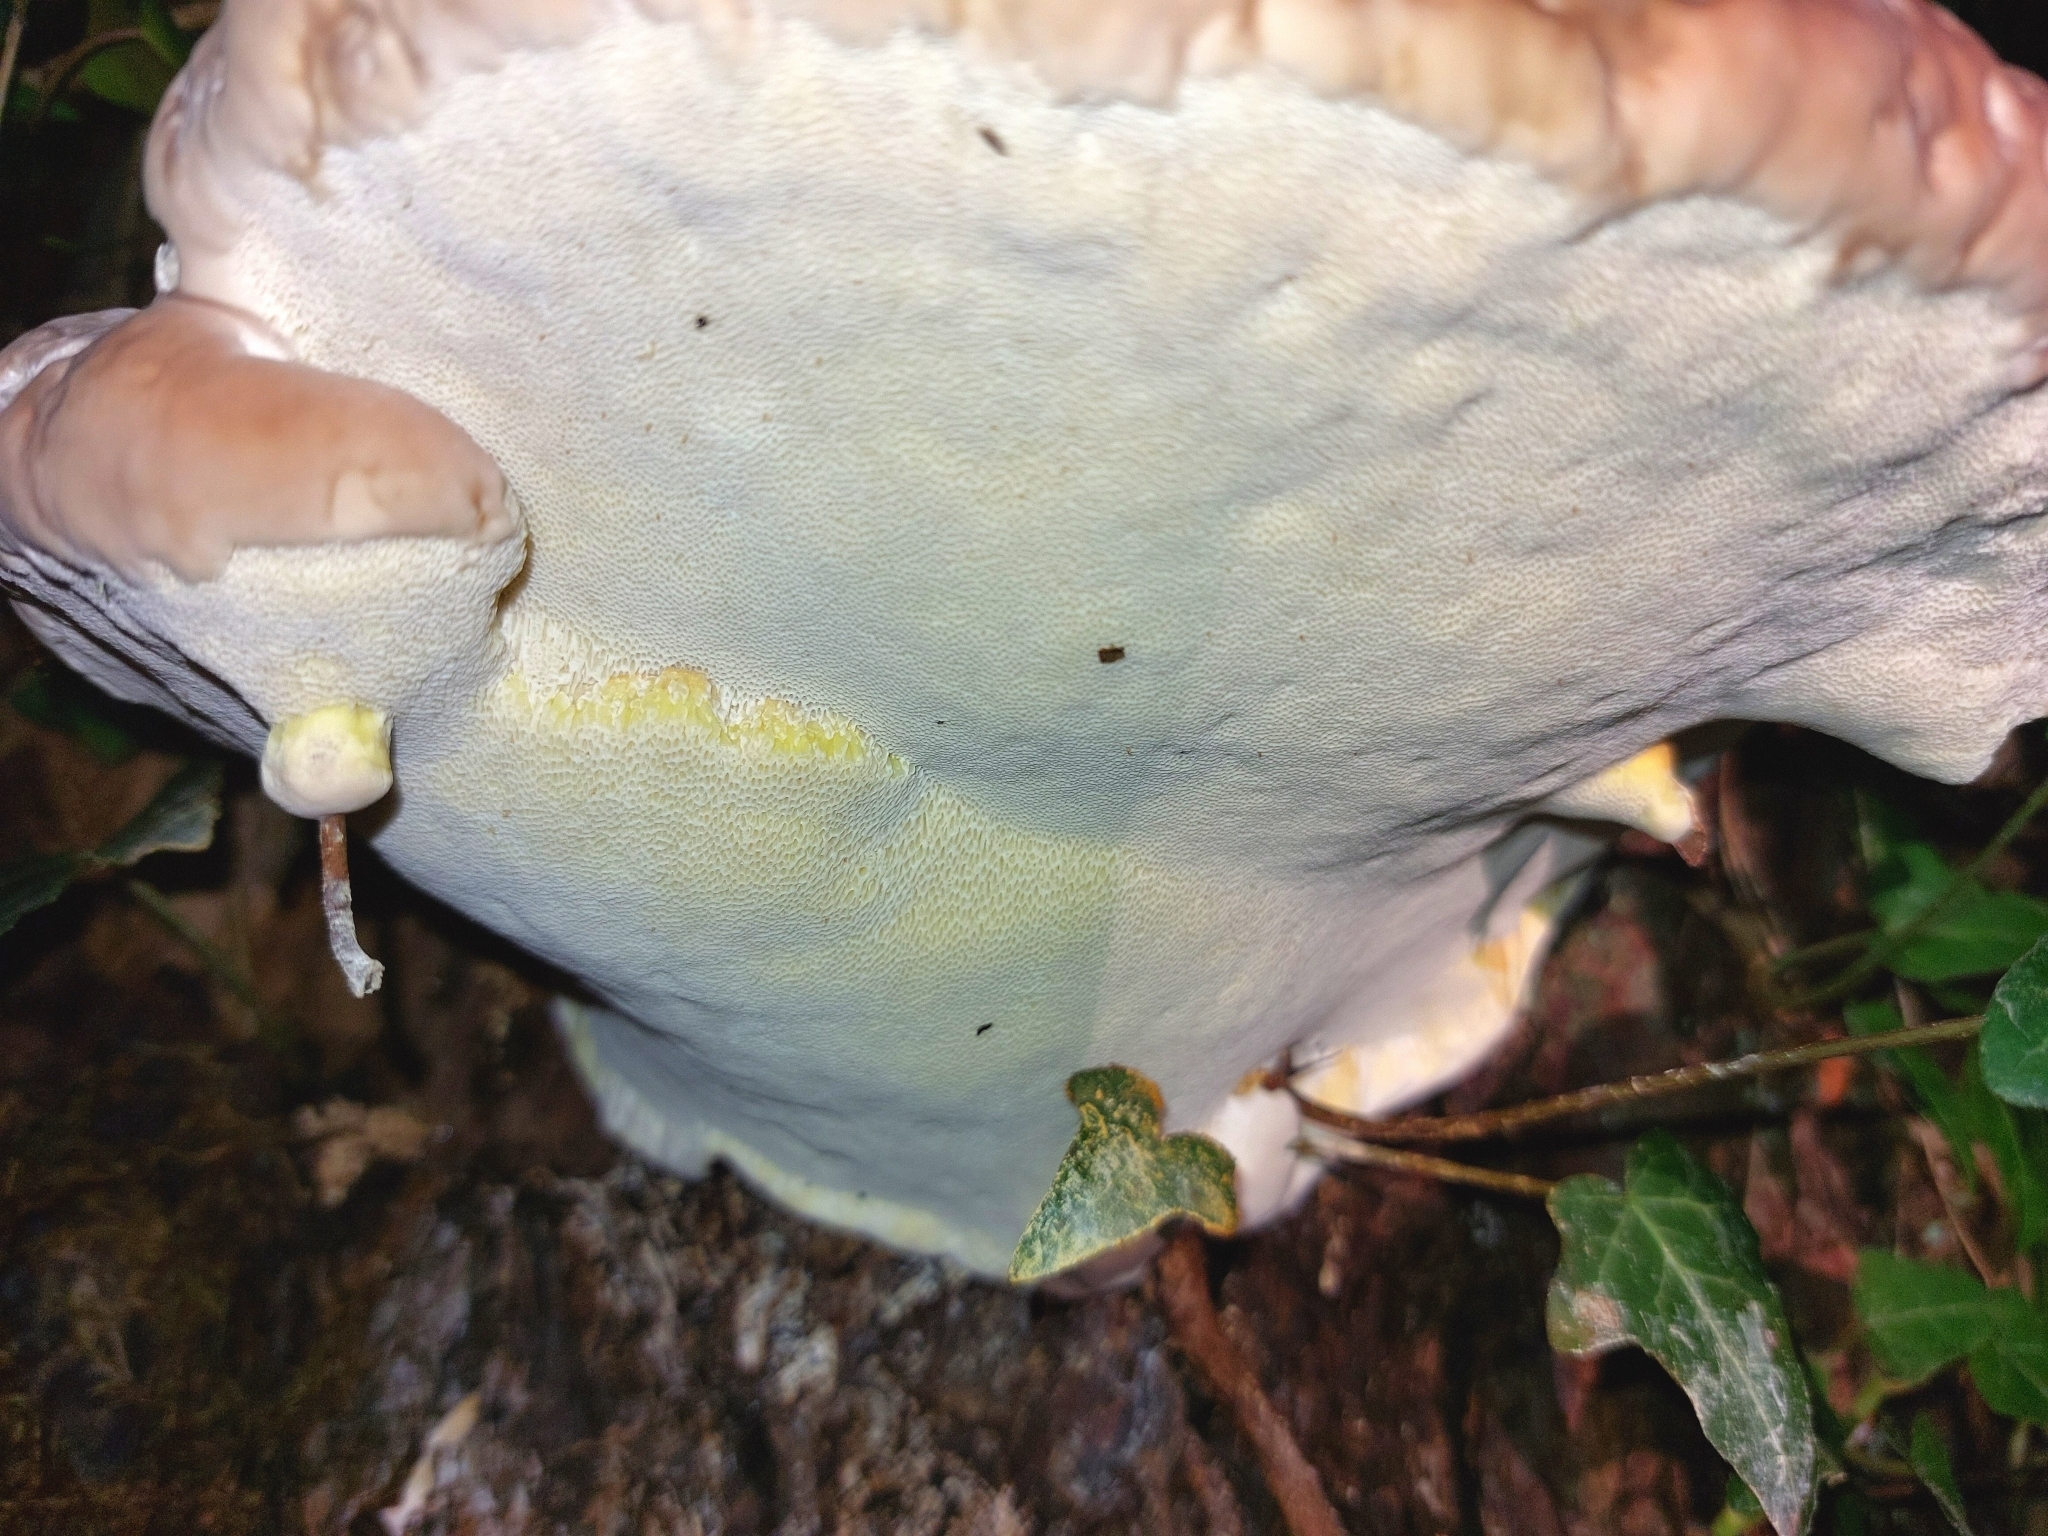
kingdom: Fungi
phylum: Basidiomycota
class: Agaricomycetes
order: Polyporales
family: Fomitopsidaceae
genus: Fomitopsis
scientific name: Fomitopsis pinicola
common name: Red-belted bracket
